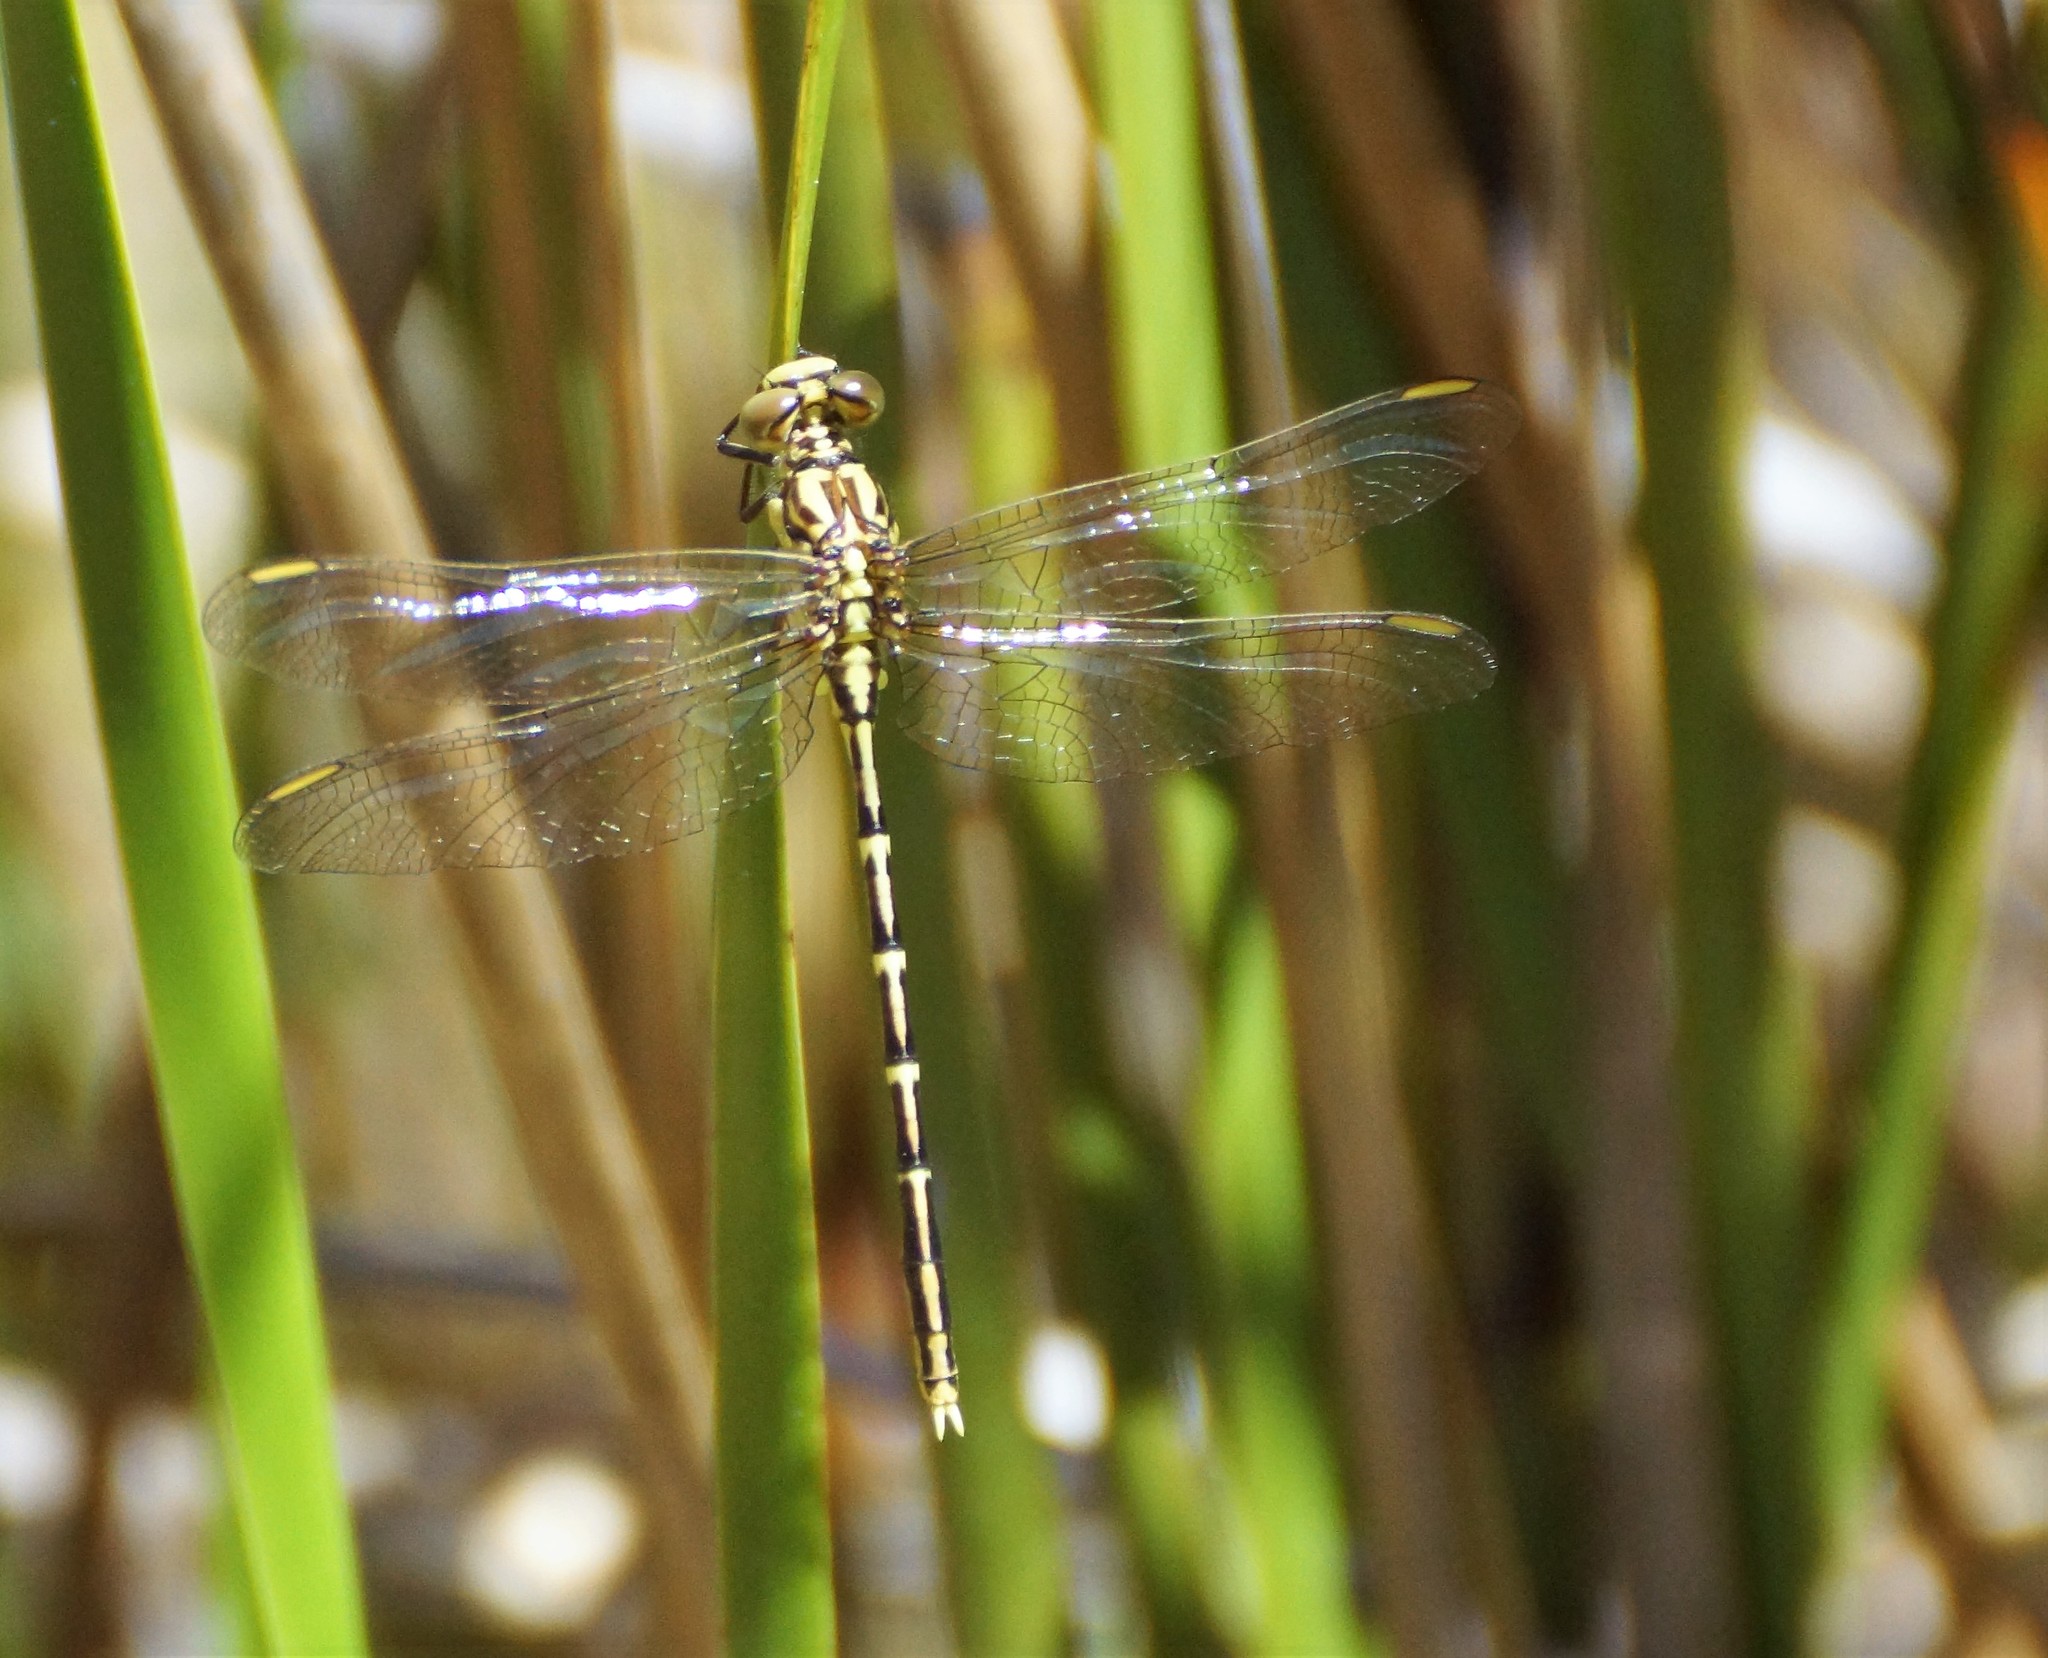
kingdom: Animalia
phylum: Arthropoda
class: Insecta
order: Odonata
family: Gomphidae
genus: Austrogomphus
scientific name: Austrogomphus guerini
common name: Yellow-striped hunter
